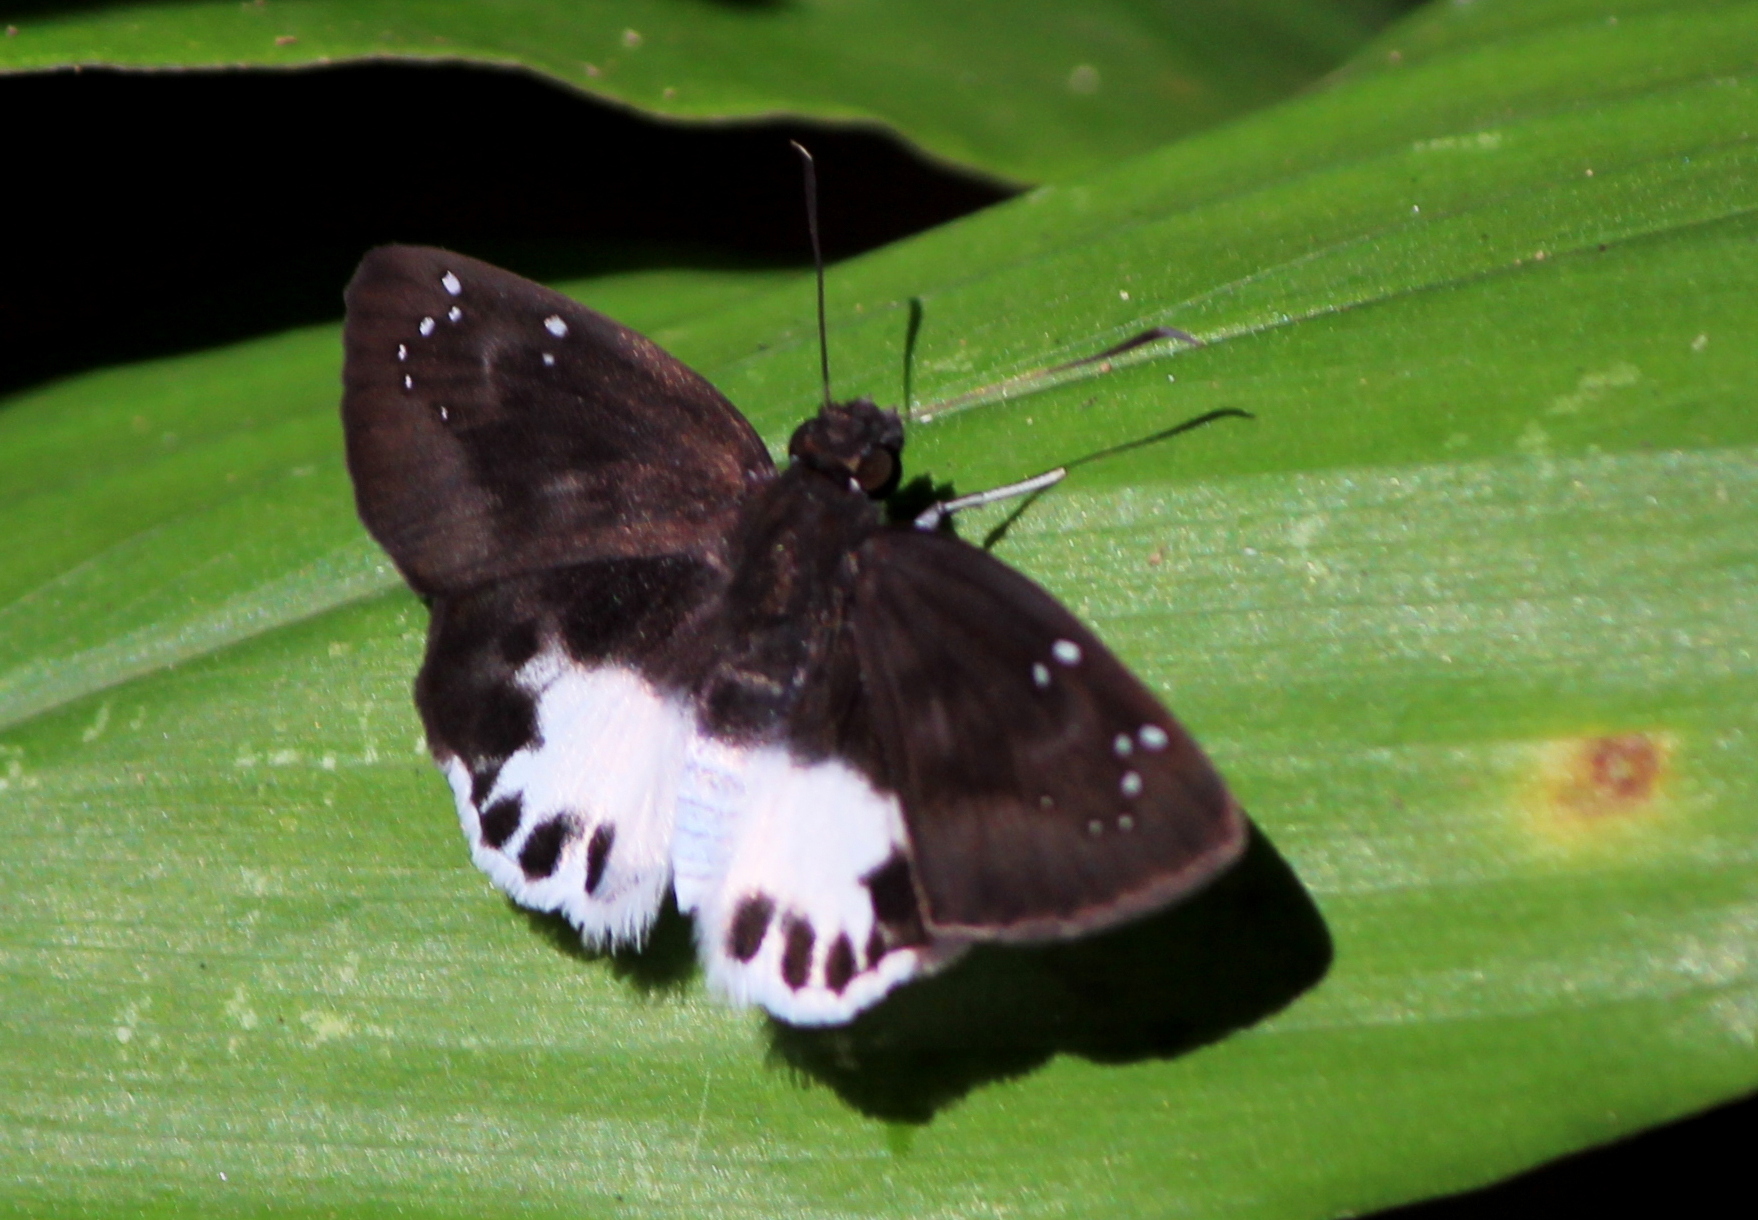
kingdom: Animalia
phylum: Arthropoda
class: Insecta
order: Lepidoptera
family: Hesperiidae
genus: Tagiades
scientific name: Tagiades litigiosa
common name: Water snow flat
